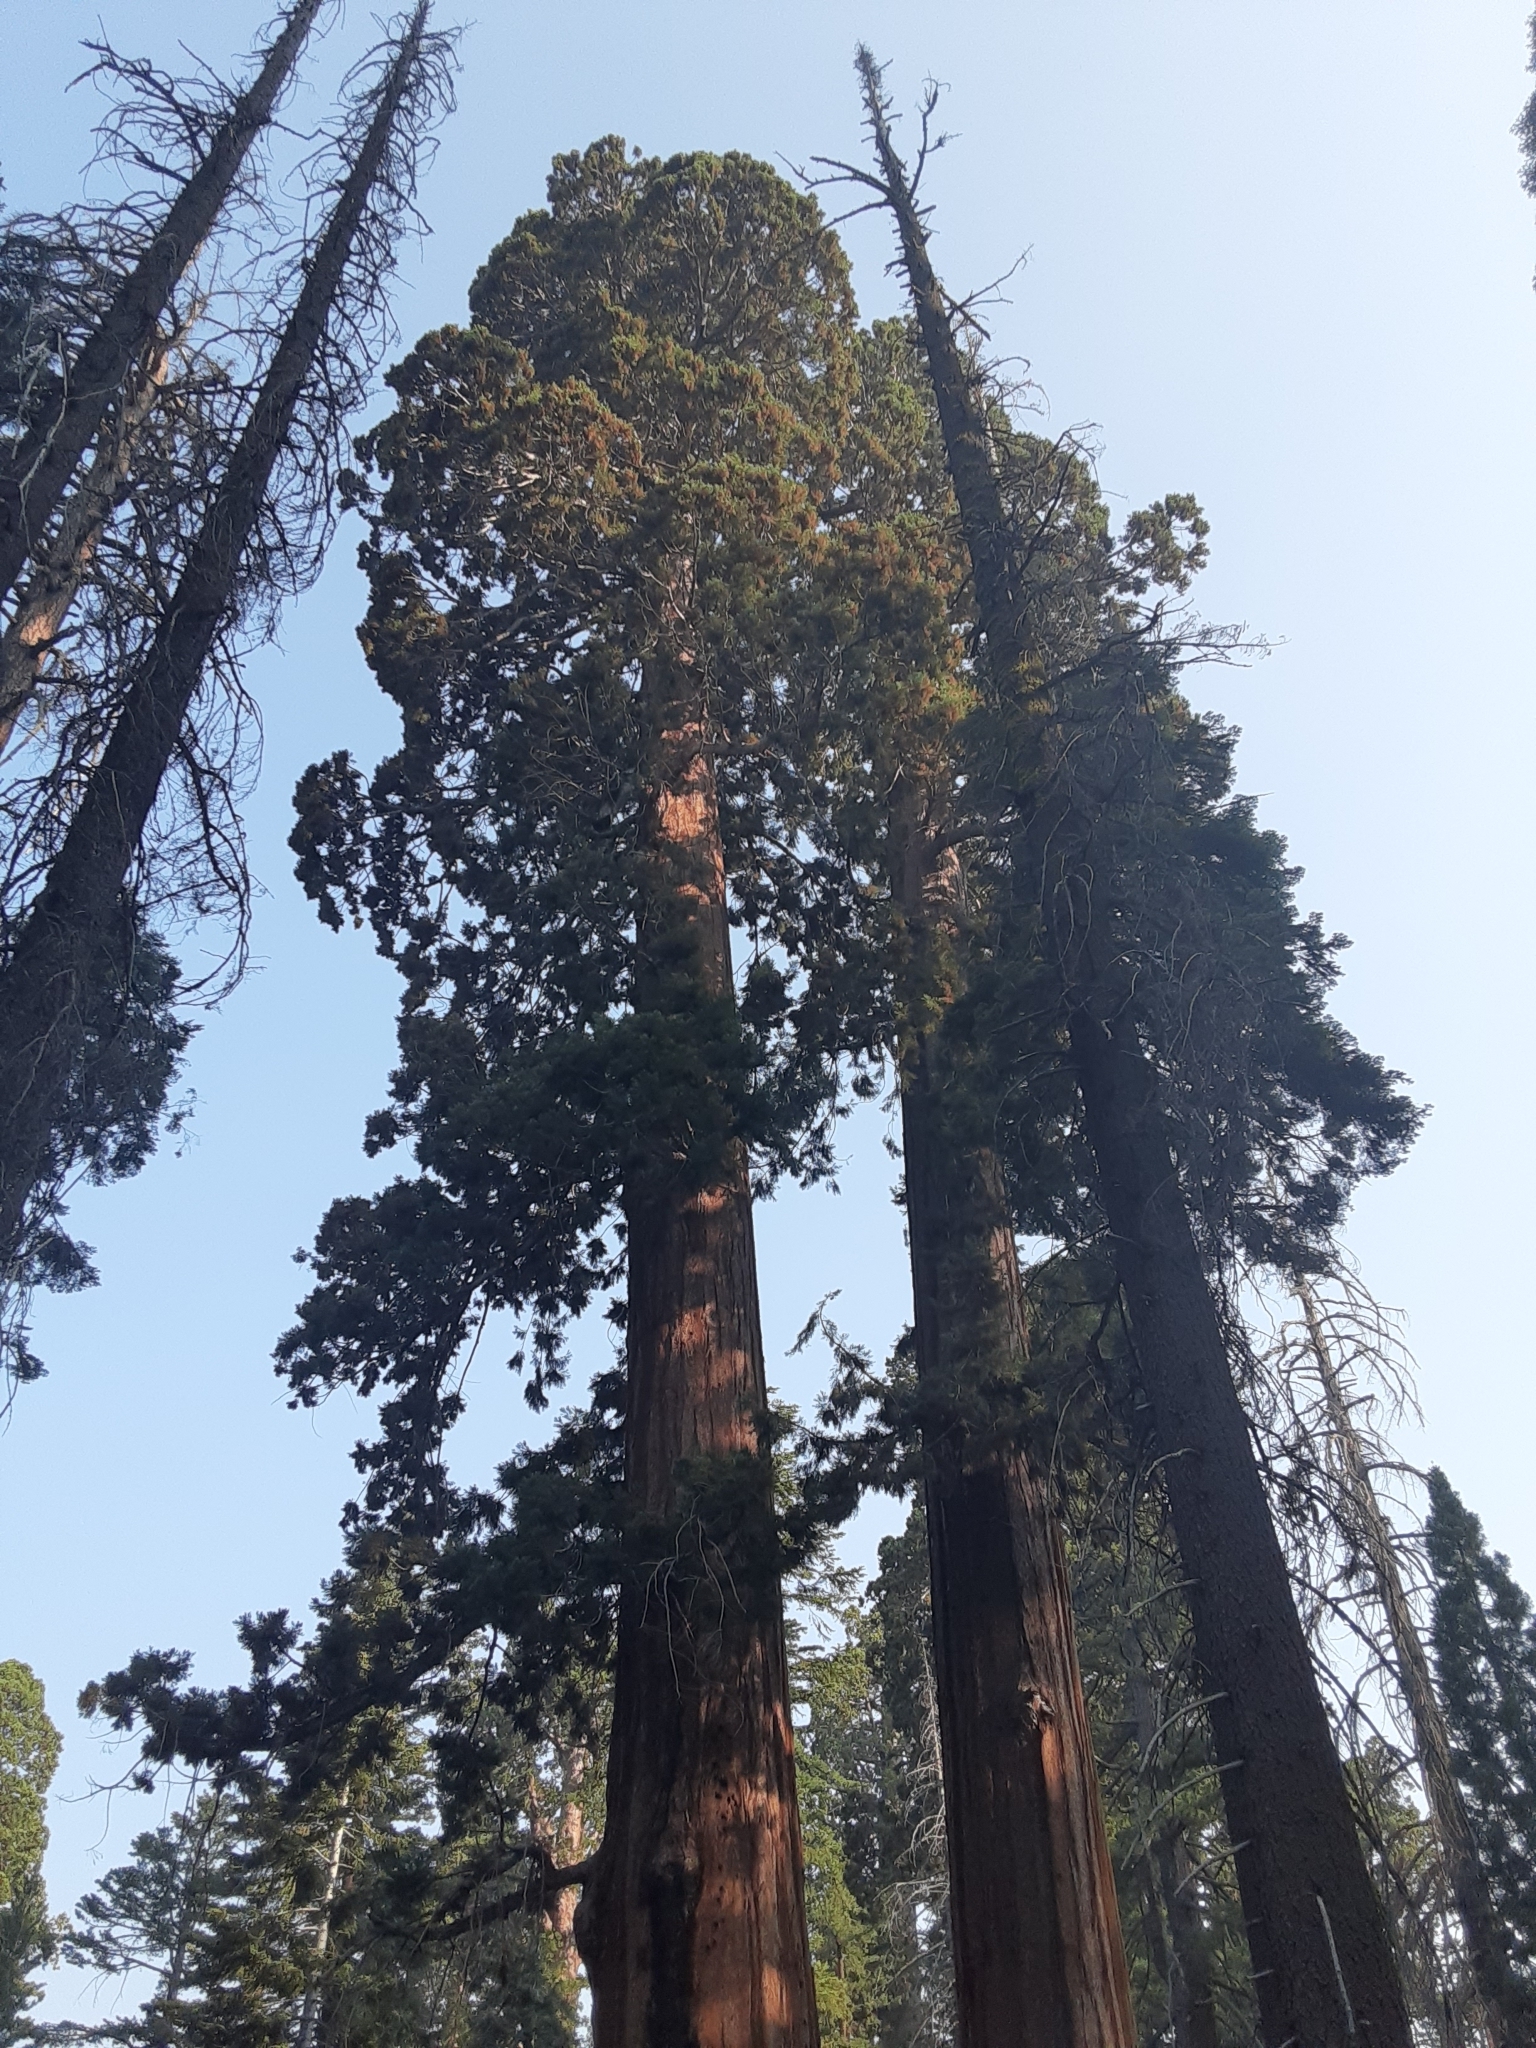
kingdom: Plantae
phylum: Tracheophyta
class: Pinopsida
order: Pinales
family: Cupressaceae
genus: Sequoiadendron
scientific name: Sequoiadendron giganteum
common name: Wellingtonia
